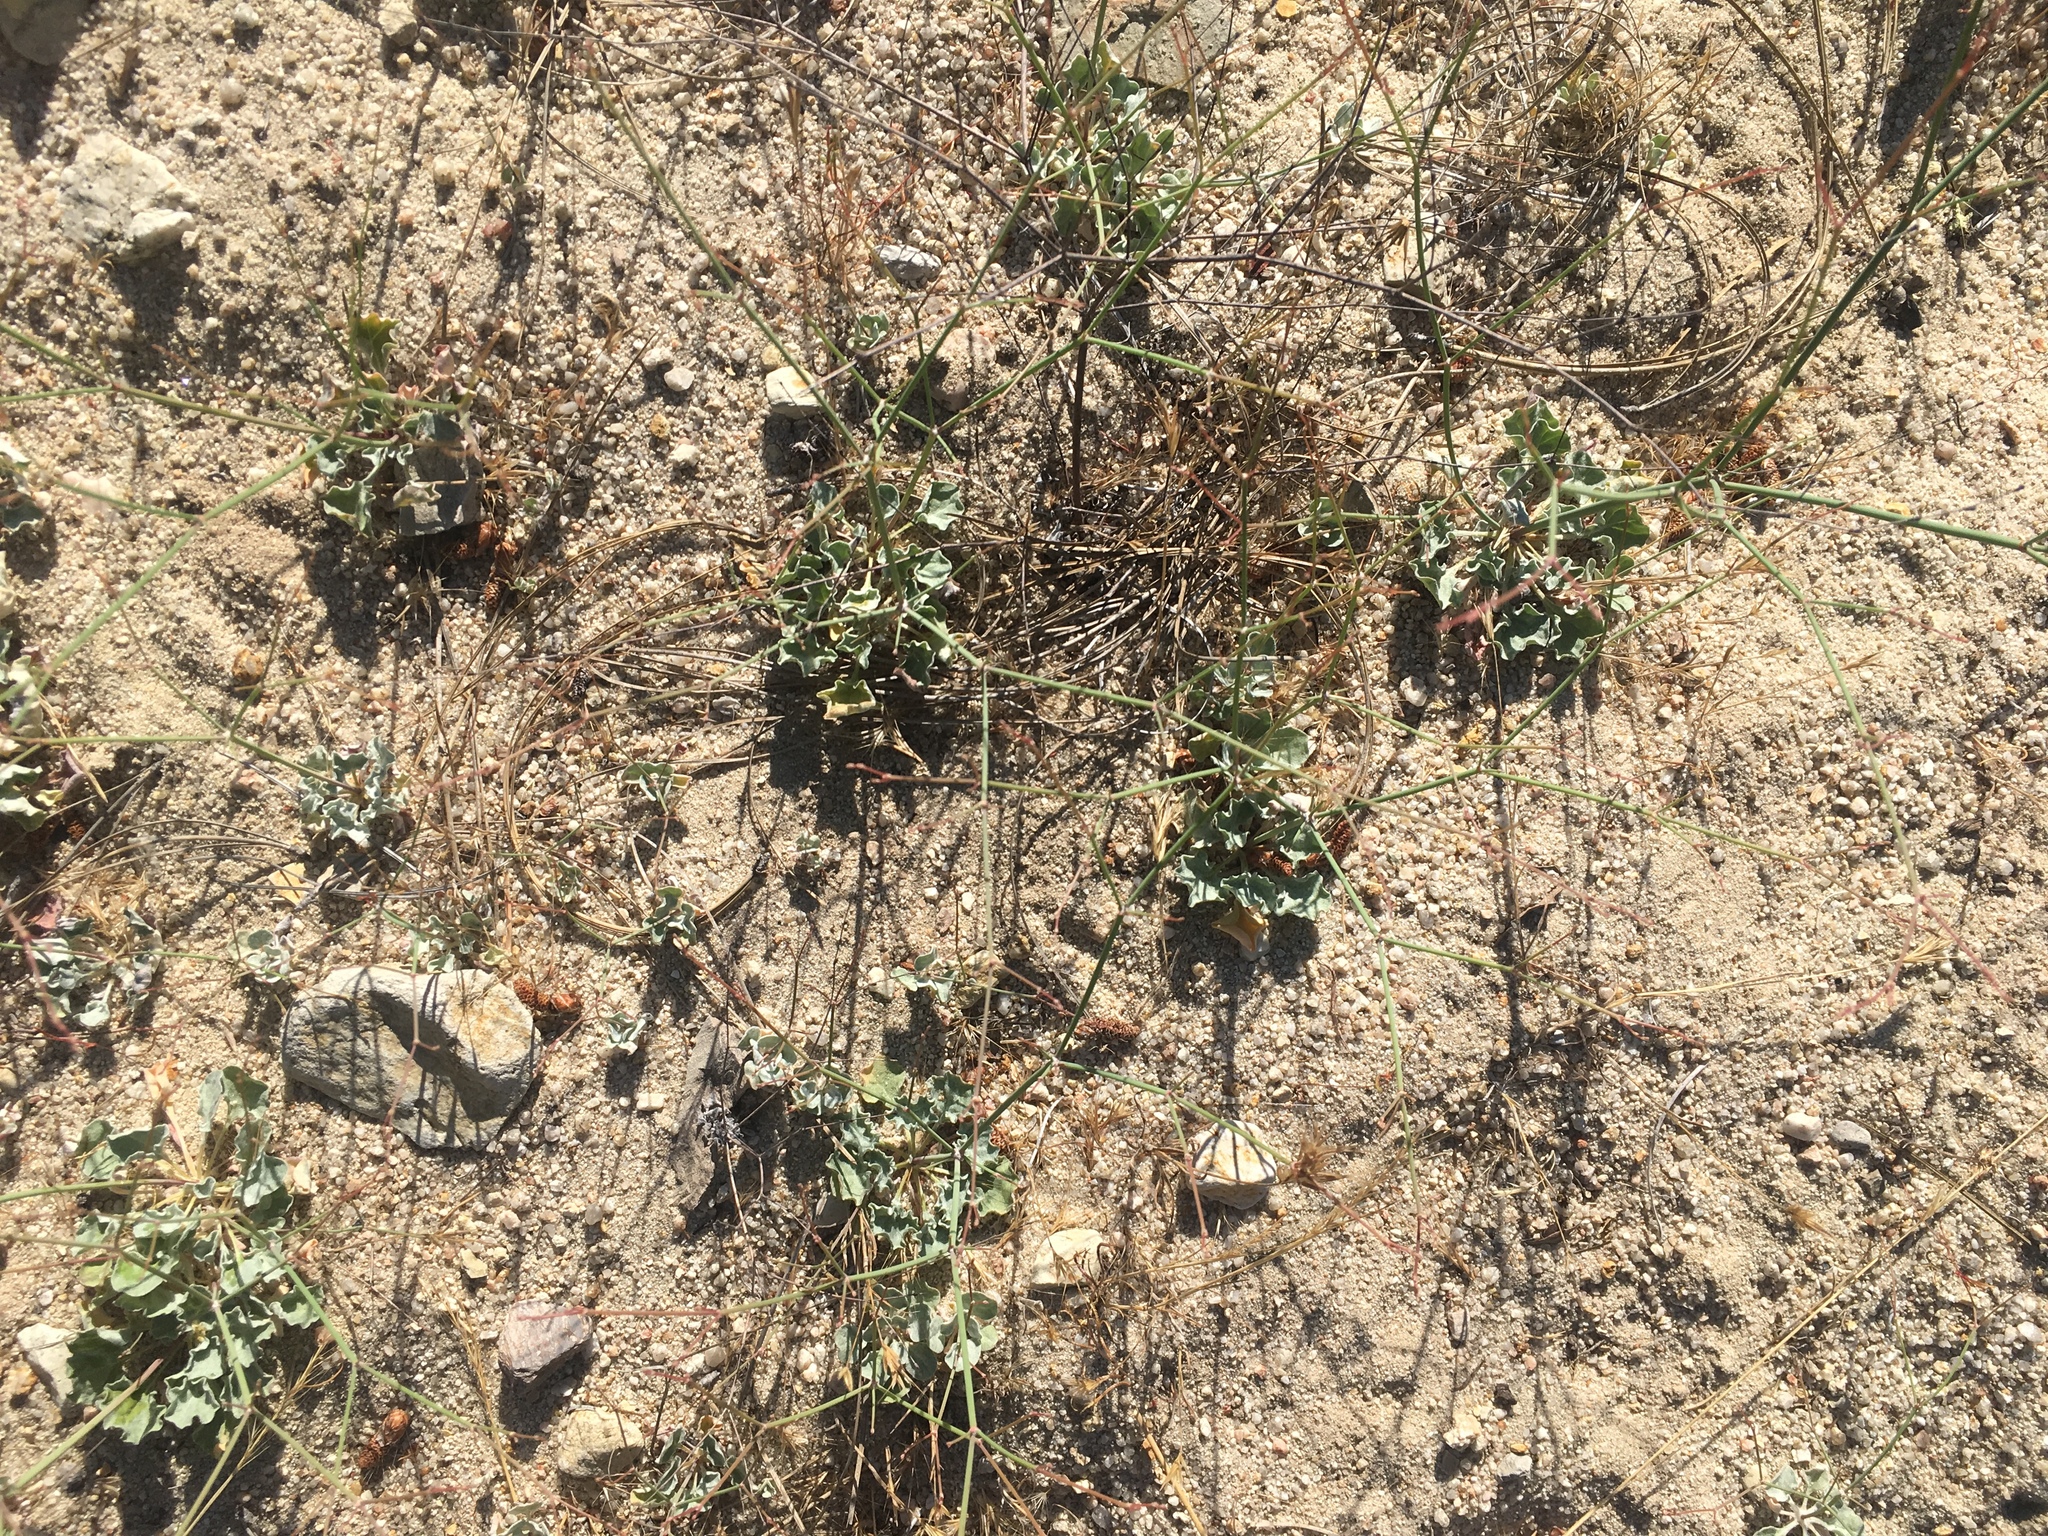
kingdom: Plantae
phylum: Tracheophyta
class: Magnoliopsida
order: Caryophyllales
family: Polygonaceae
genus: Eriogonum
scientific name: Eriogonum elegans
